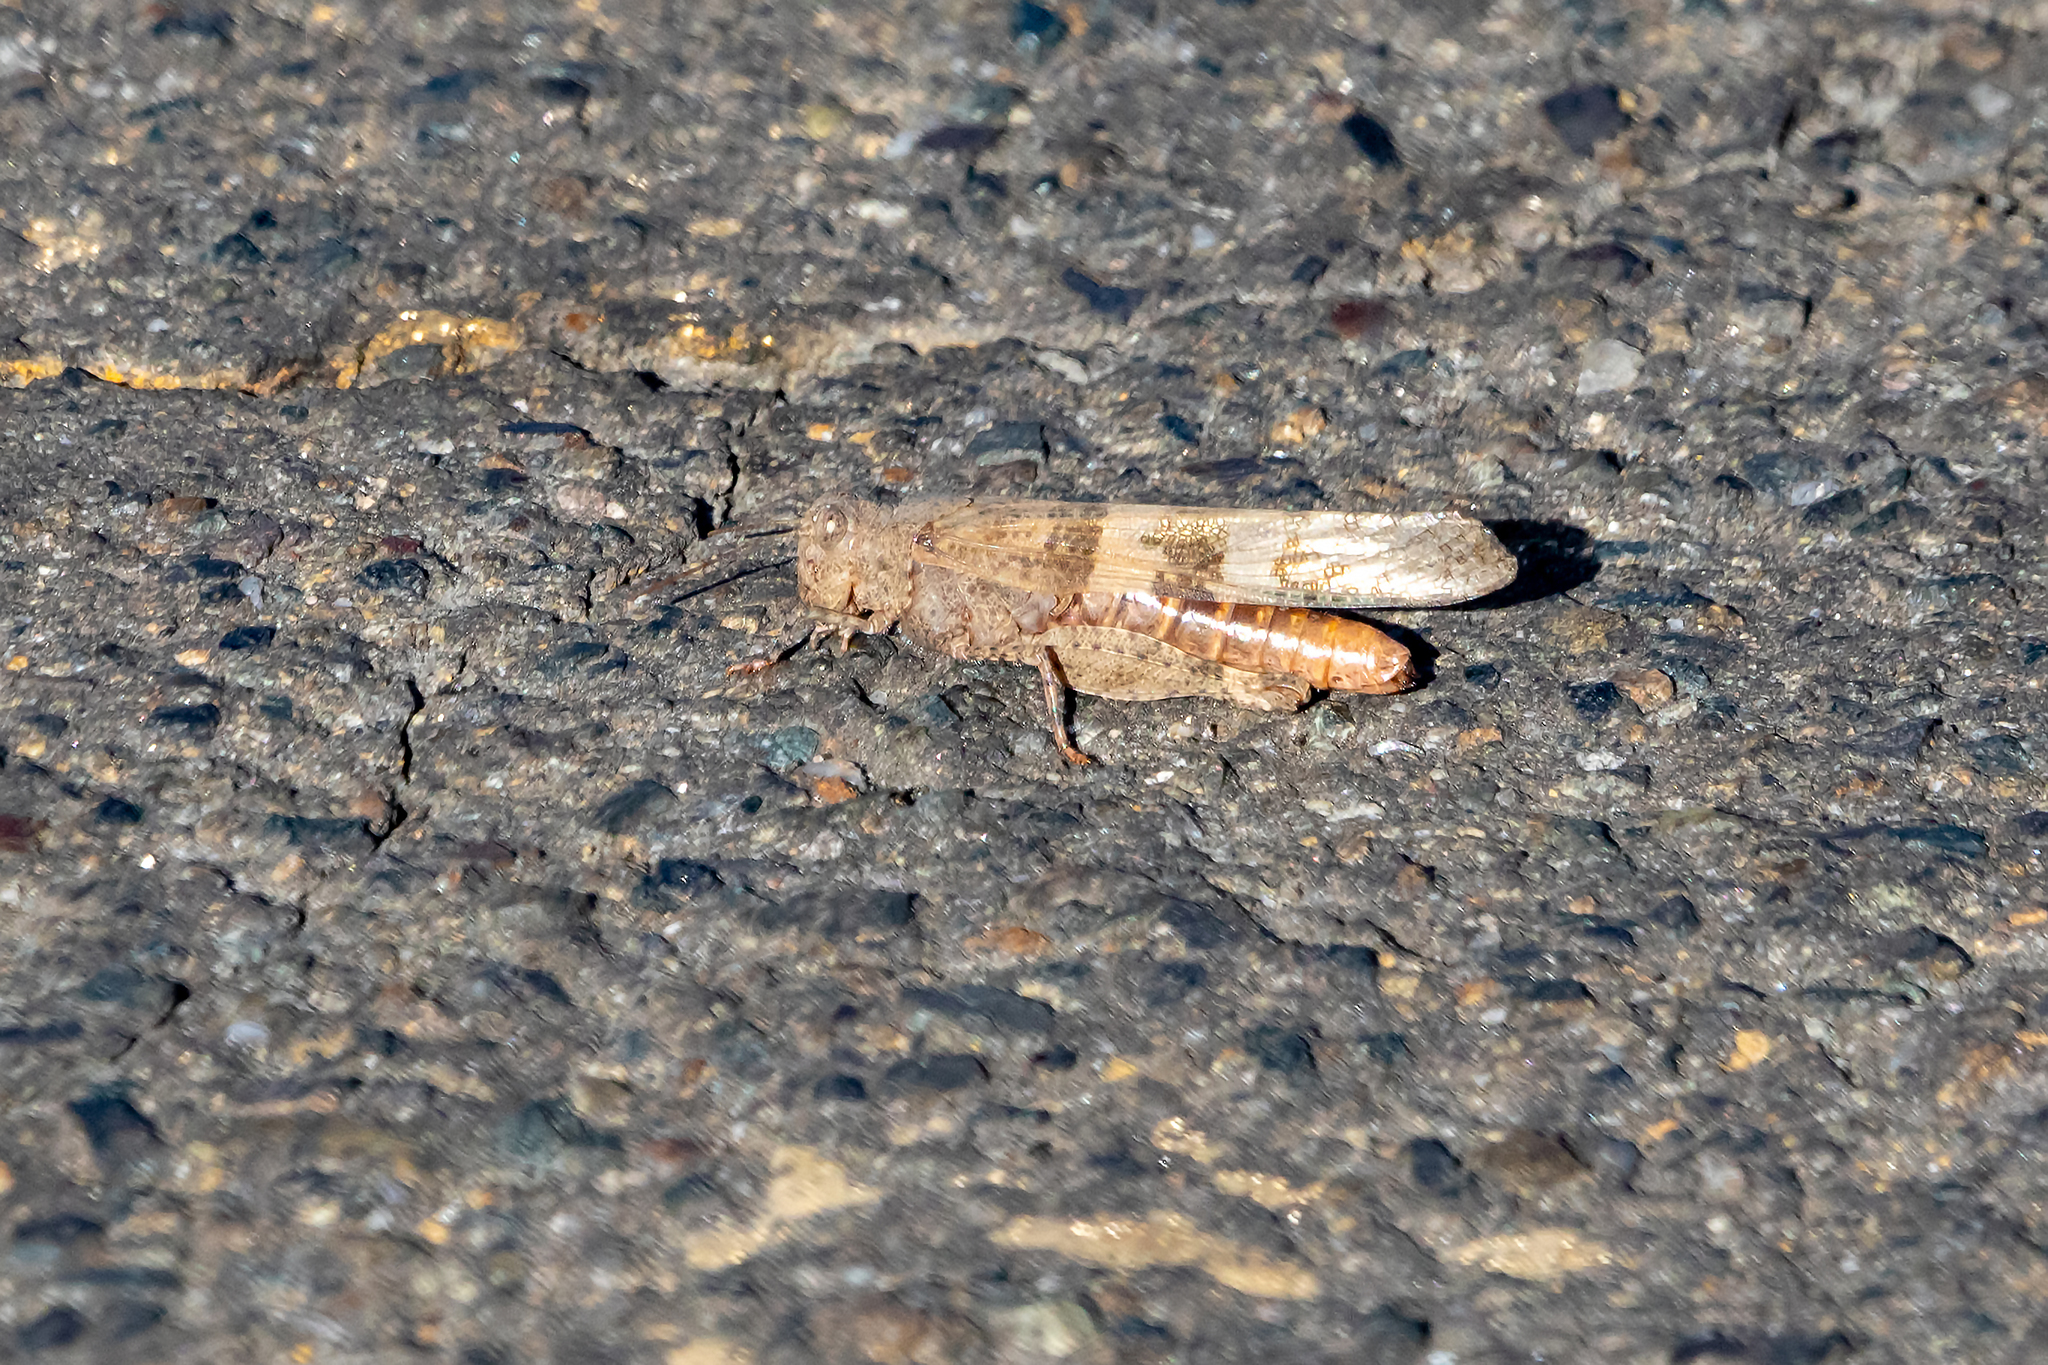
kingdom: Animalia
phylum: Arthropoda
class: Insecta
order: Orthoptera
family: Acrididae
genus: Trimerotropis
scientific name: Trimerotropis pallidipennis
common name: Pallid-winged grasshopper
